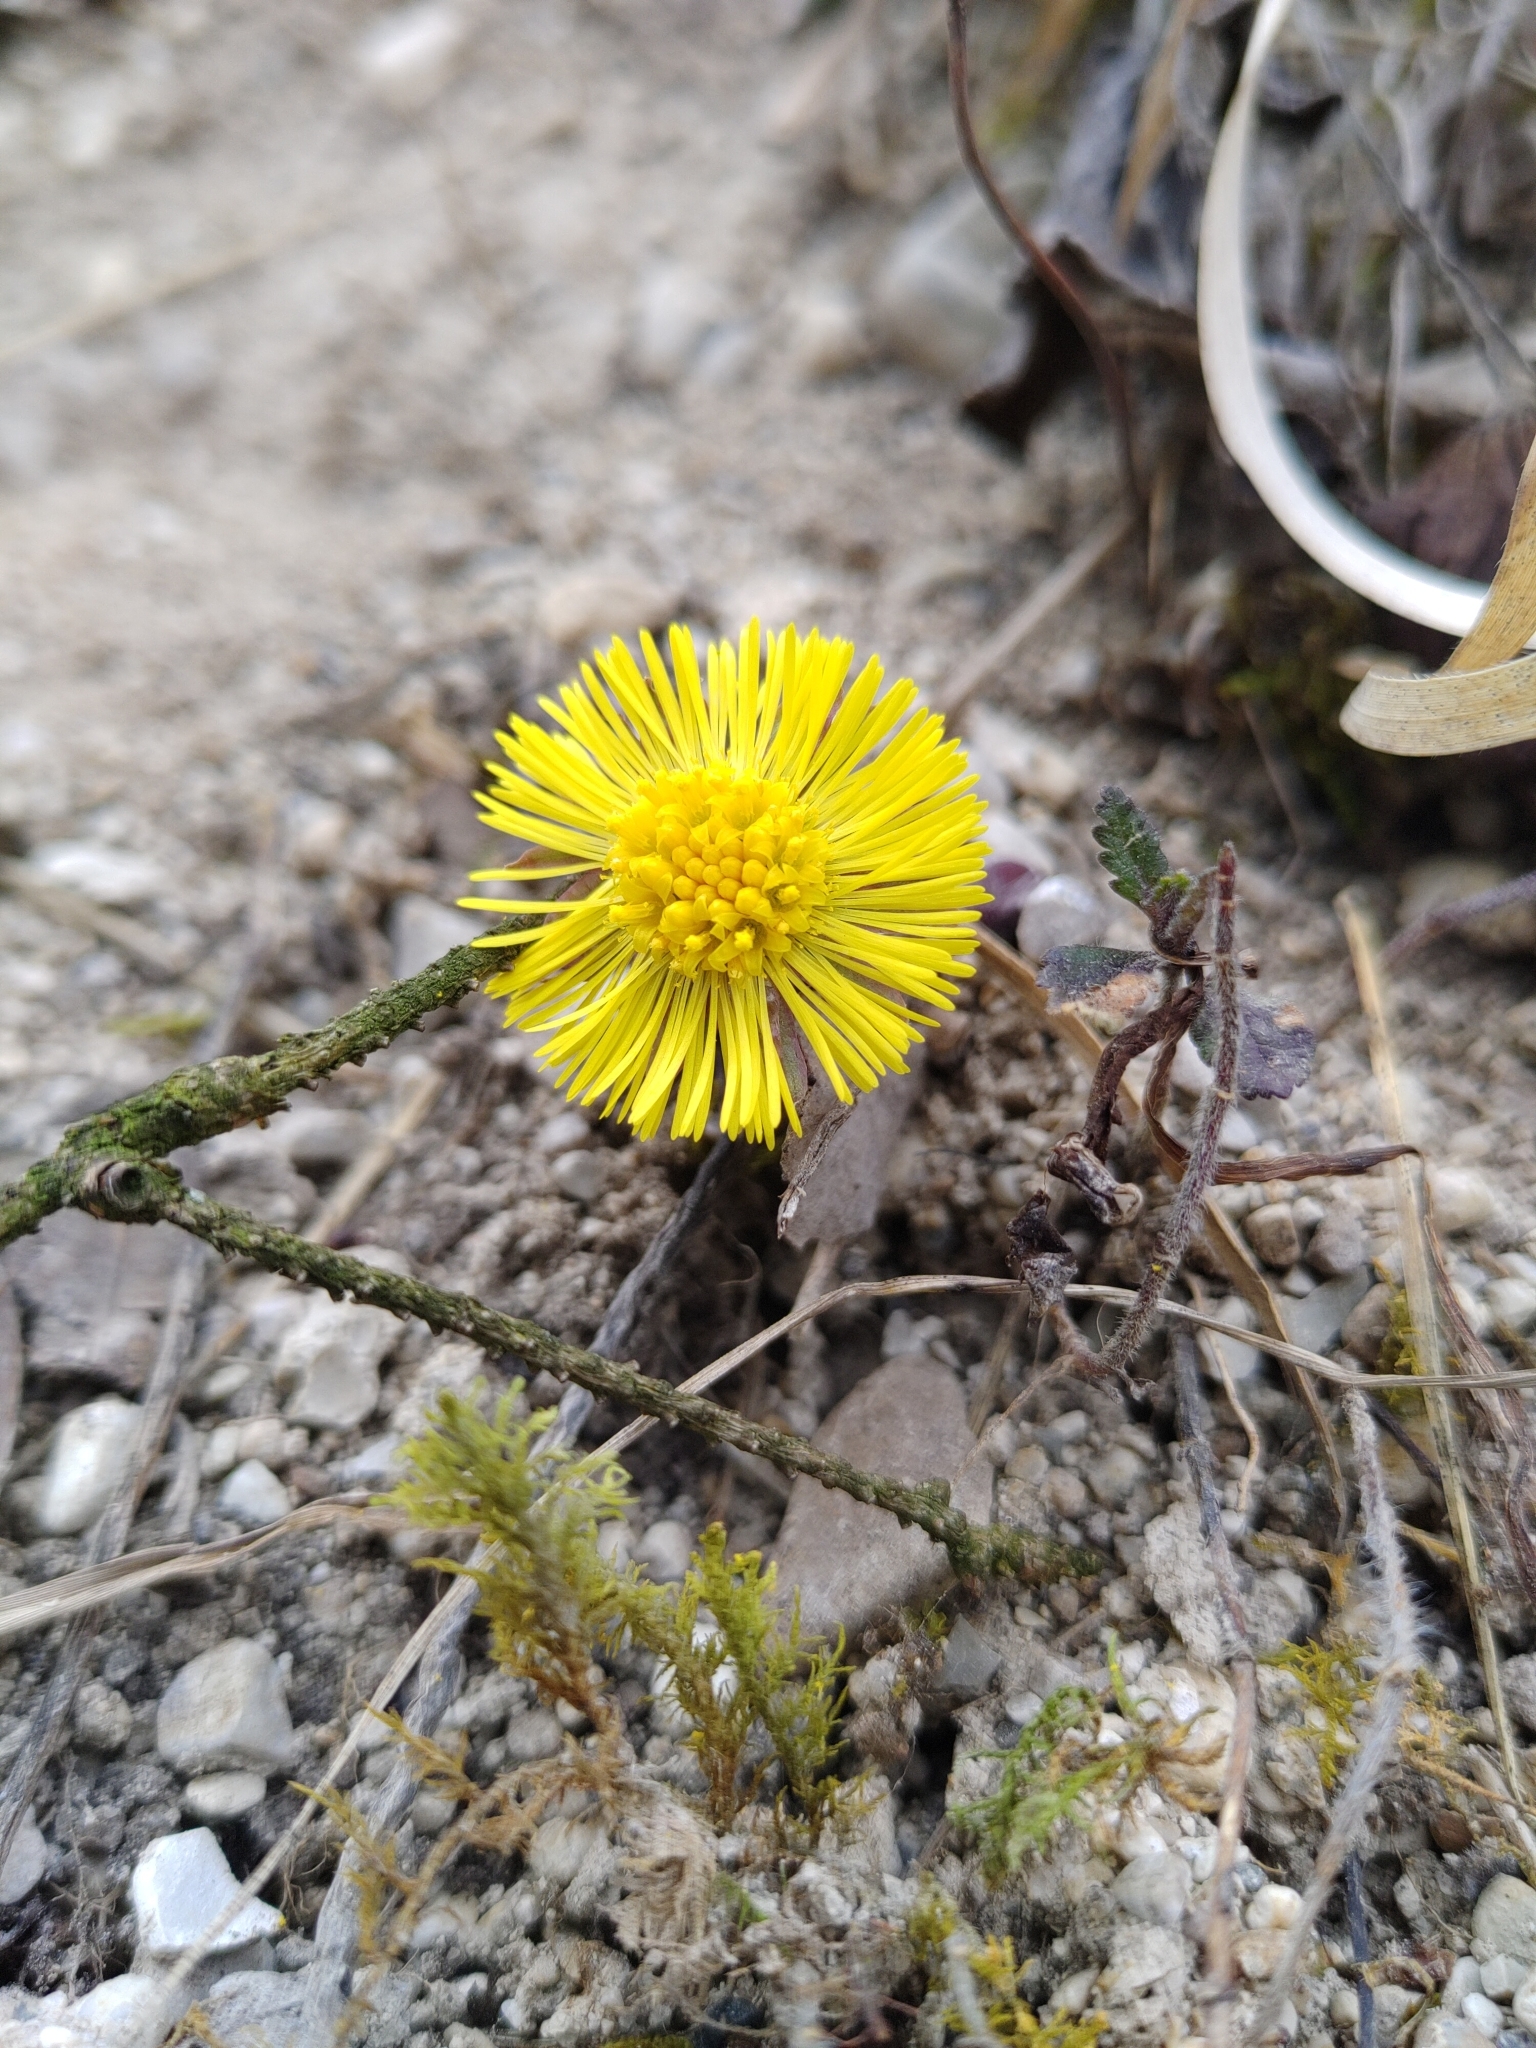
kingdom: Plantae
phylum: Tracheophyta
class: Magnoliopsida
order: Asterales
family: Asteraceae
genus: Tussilago
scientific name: Tussilago farfara
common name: Coltsfoot
